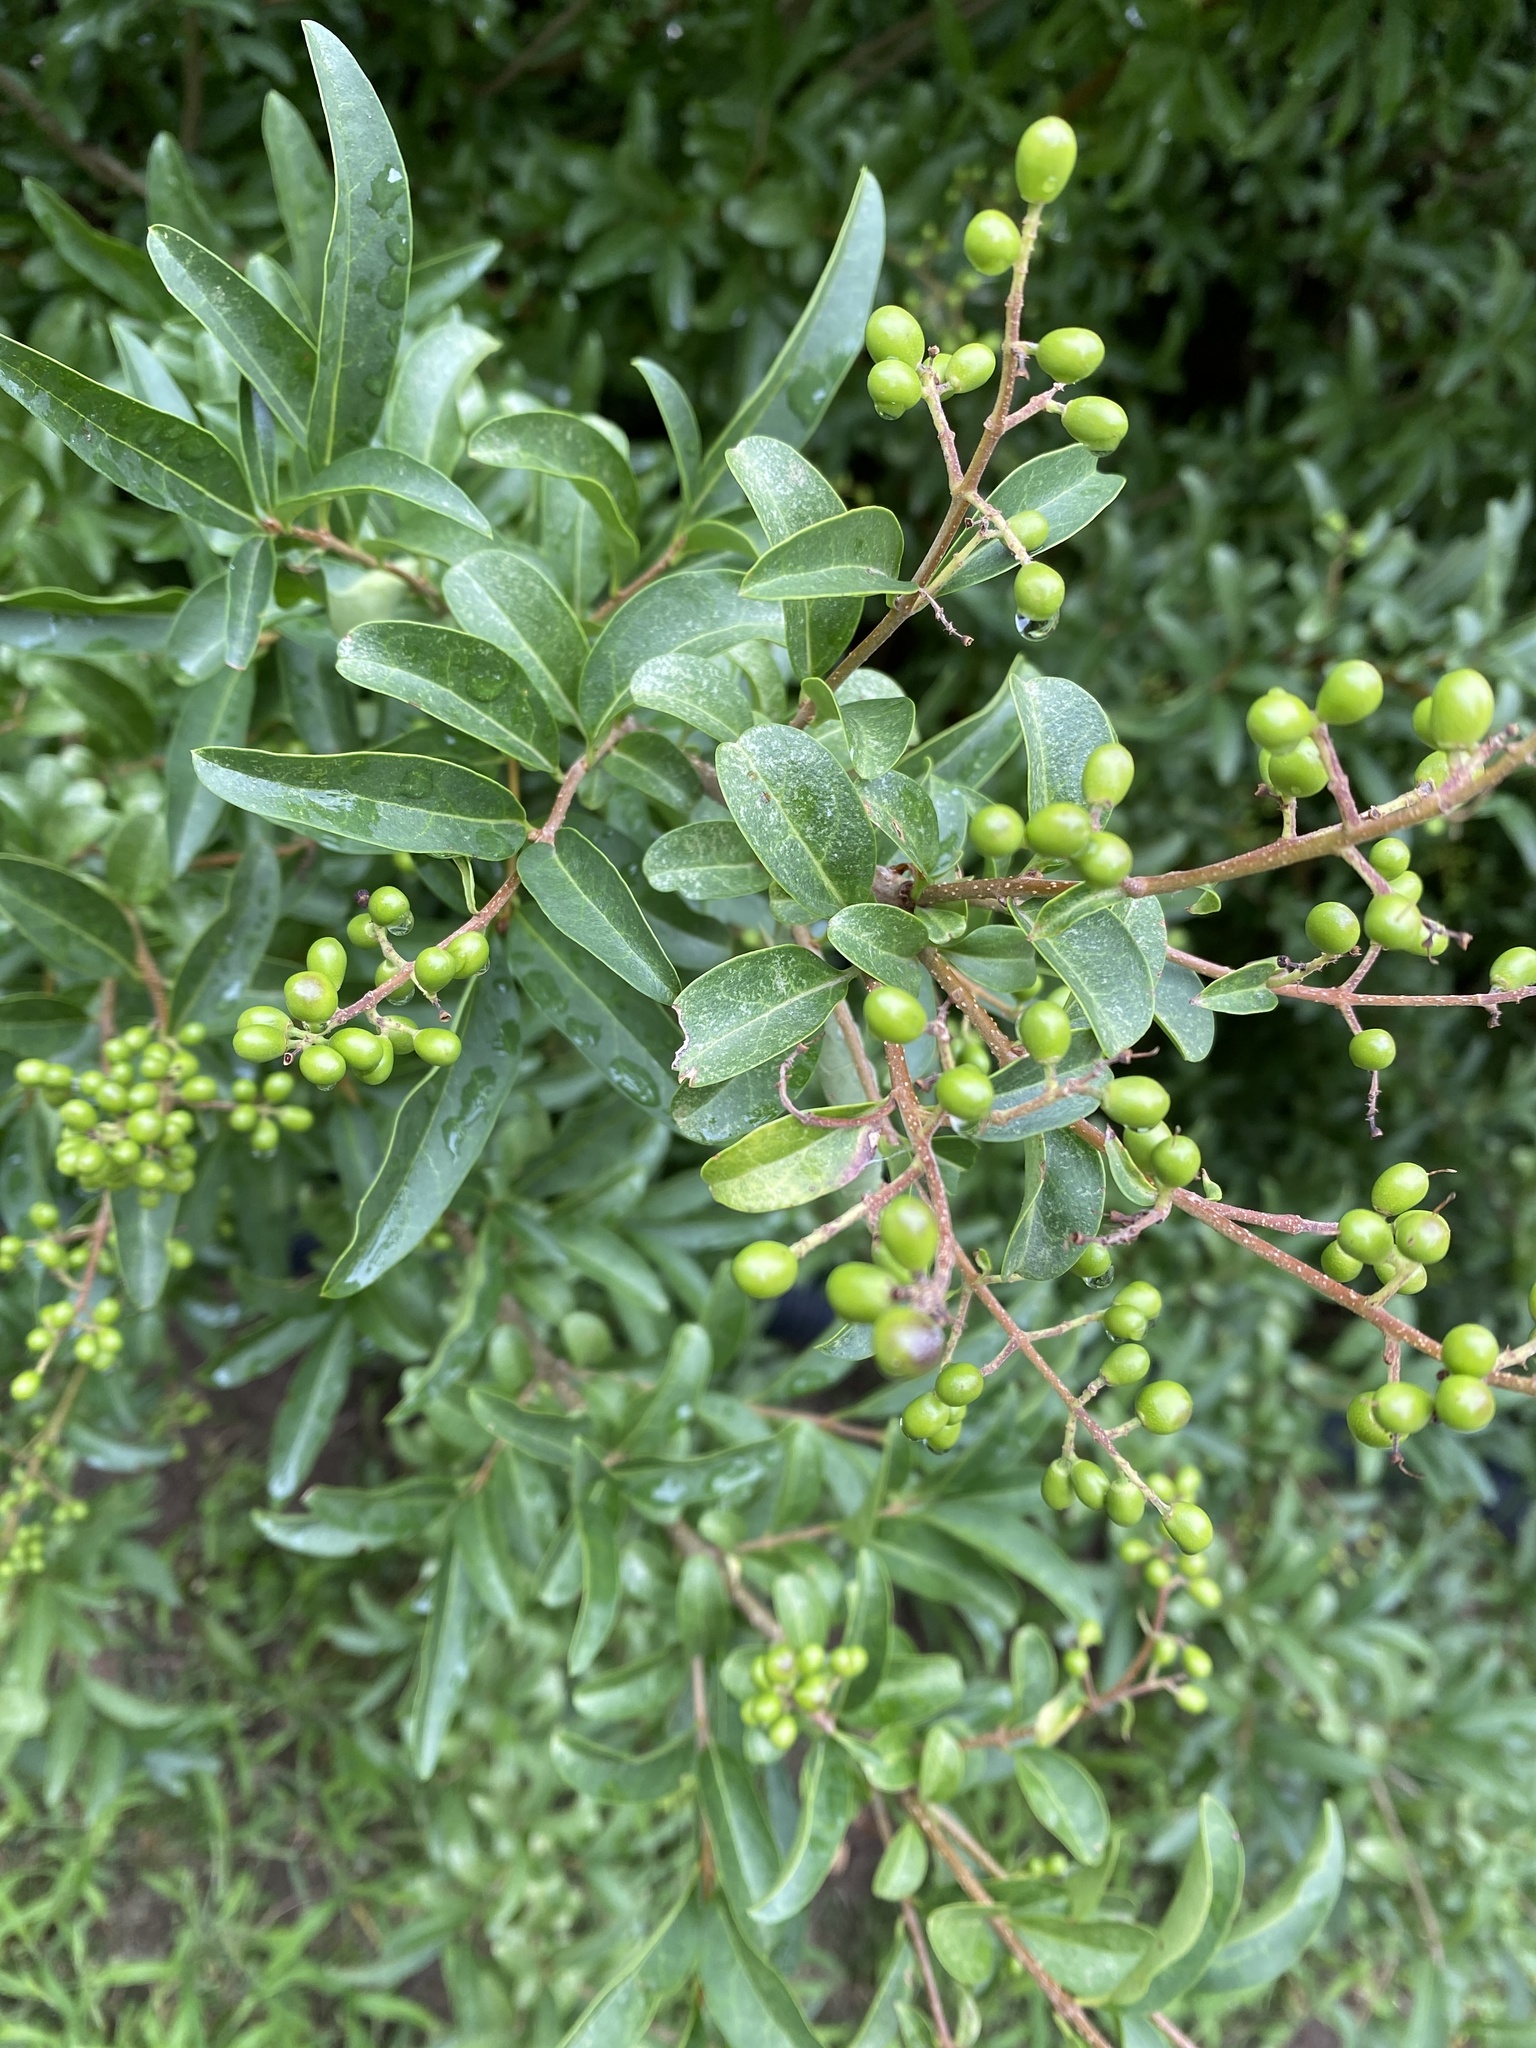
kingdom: Plantae
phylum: Tracheophyta
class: Magnoliopsida
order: Lamiales
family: Oleaceae
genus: Ligustrum
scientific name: Ligustrum vulgare
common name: Wild privet
